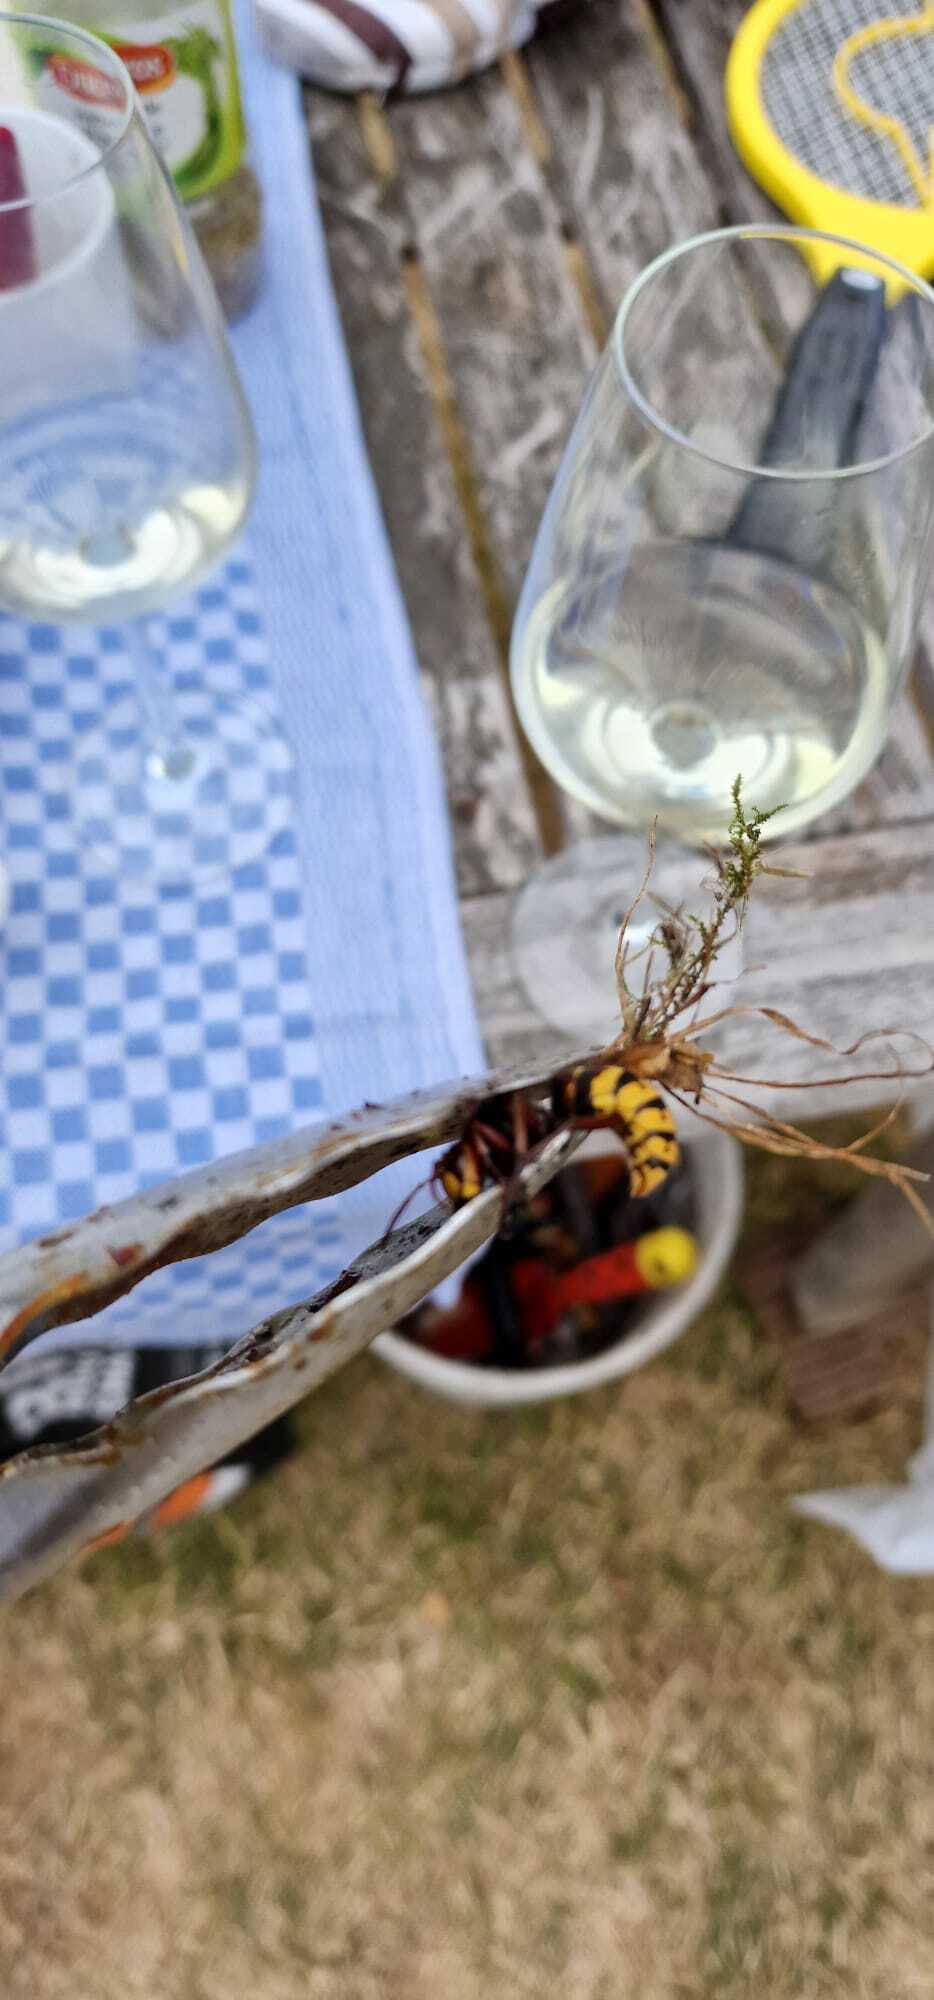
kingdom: Animalia
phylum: Arthropoda
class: Insecta
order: Hymenoptera
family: Vespidae
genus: Vespa
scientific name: Vespa crabro
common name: Hornet
